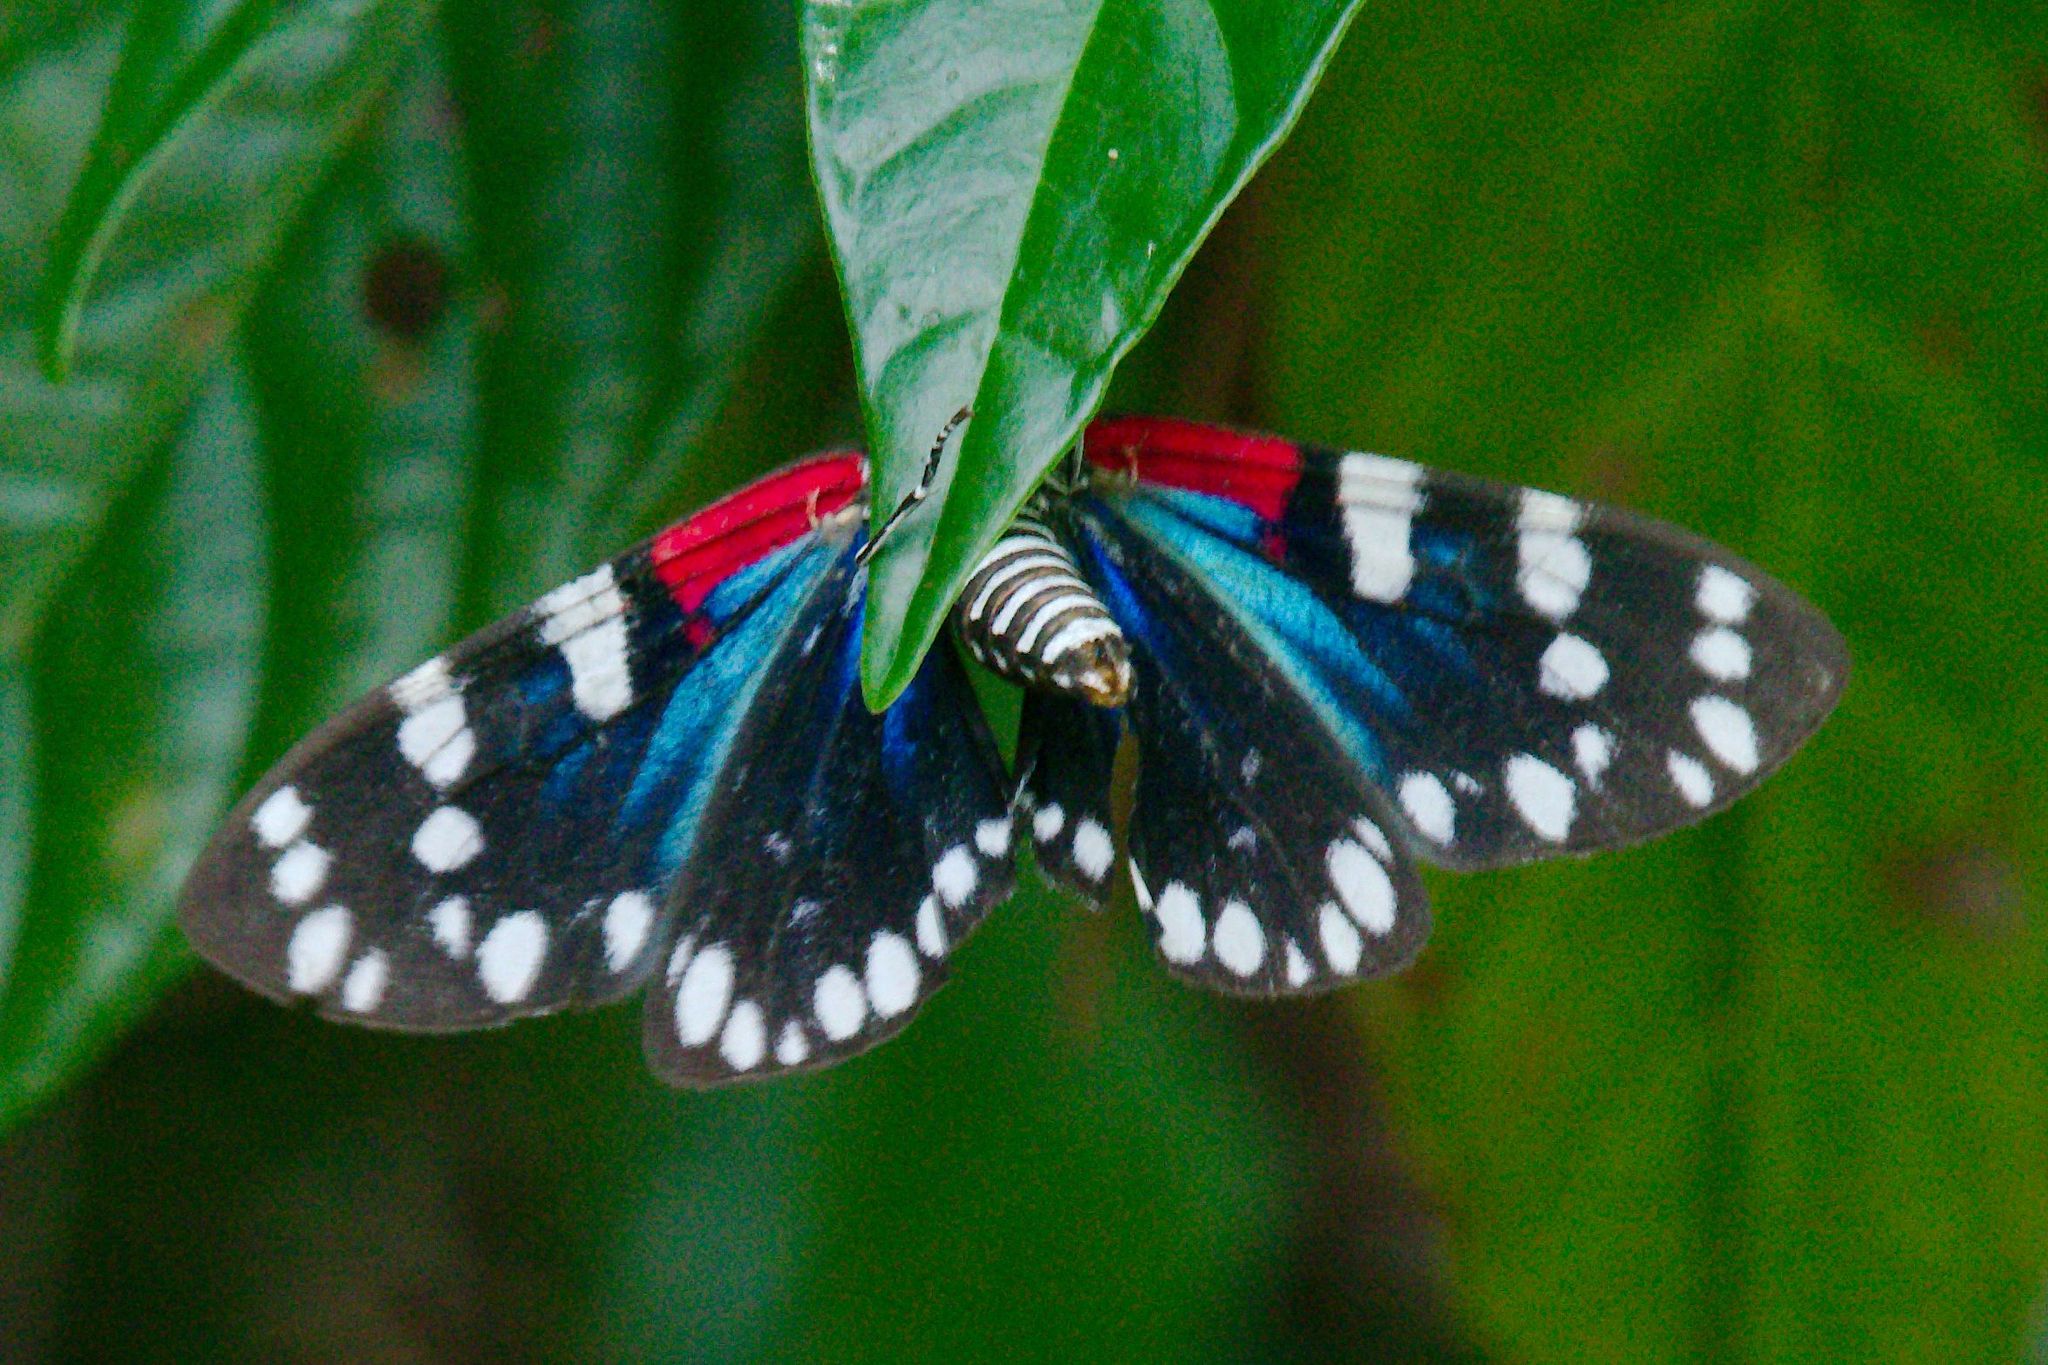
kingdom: Animalia
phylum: Arthropoda
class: Insecta
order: Lepidoptera
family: Erebidae
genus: Composia
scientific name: Composia fidelissima
